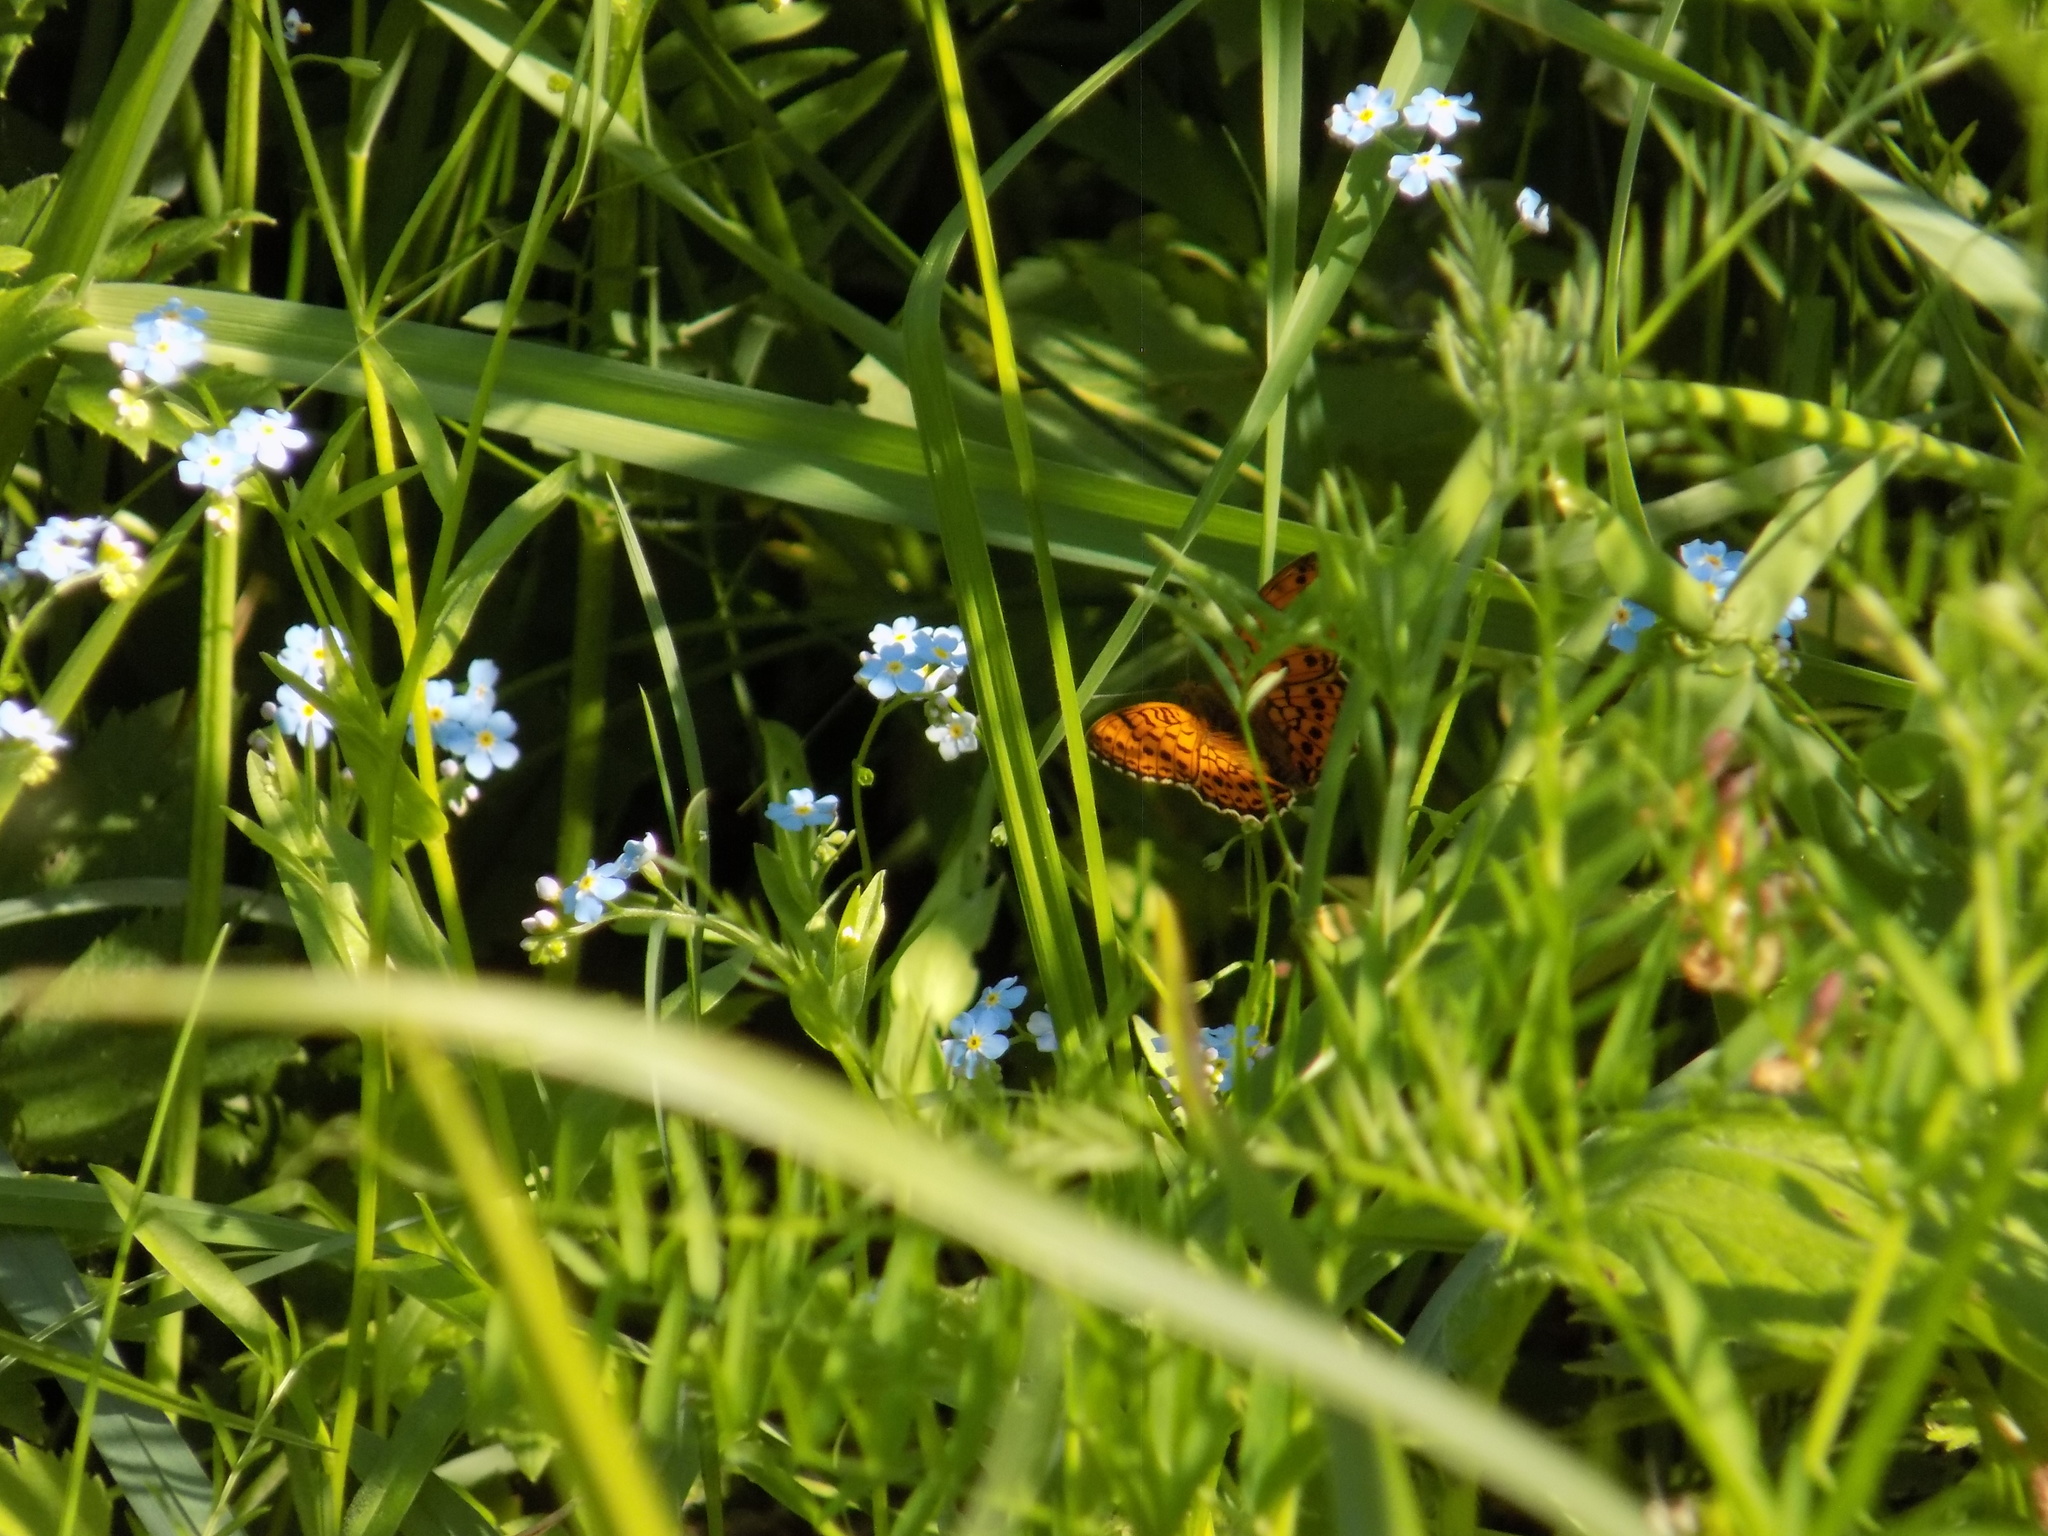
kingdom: Animalia
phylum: Arthropoda
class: Insecta
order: Lepidoptera
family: Nymphalidae
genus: Brenthis
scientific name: Brenthis ino
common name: Lesser marbled fritillary
